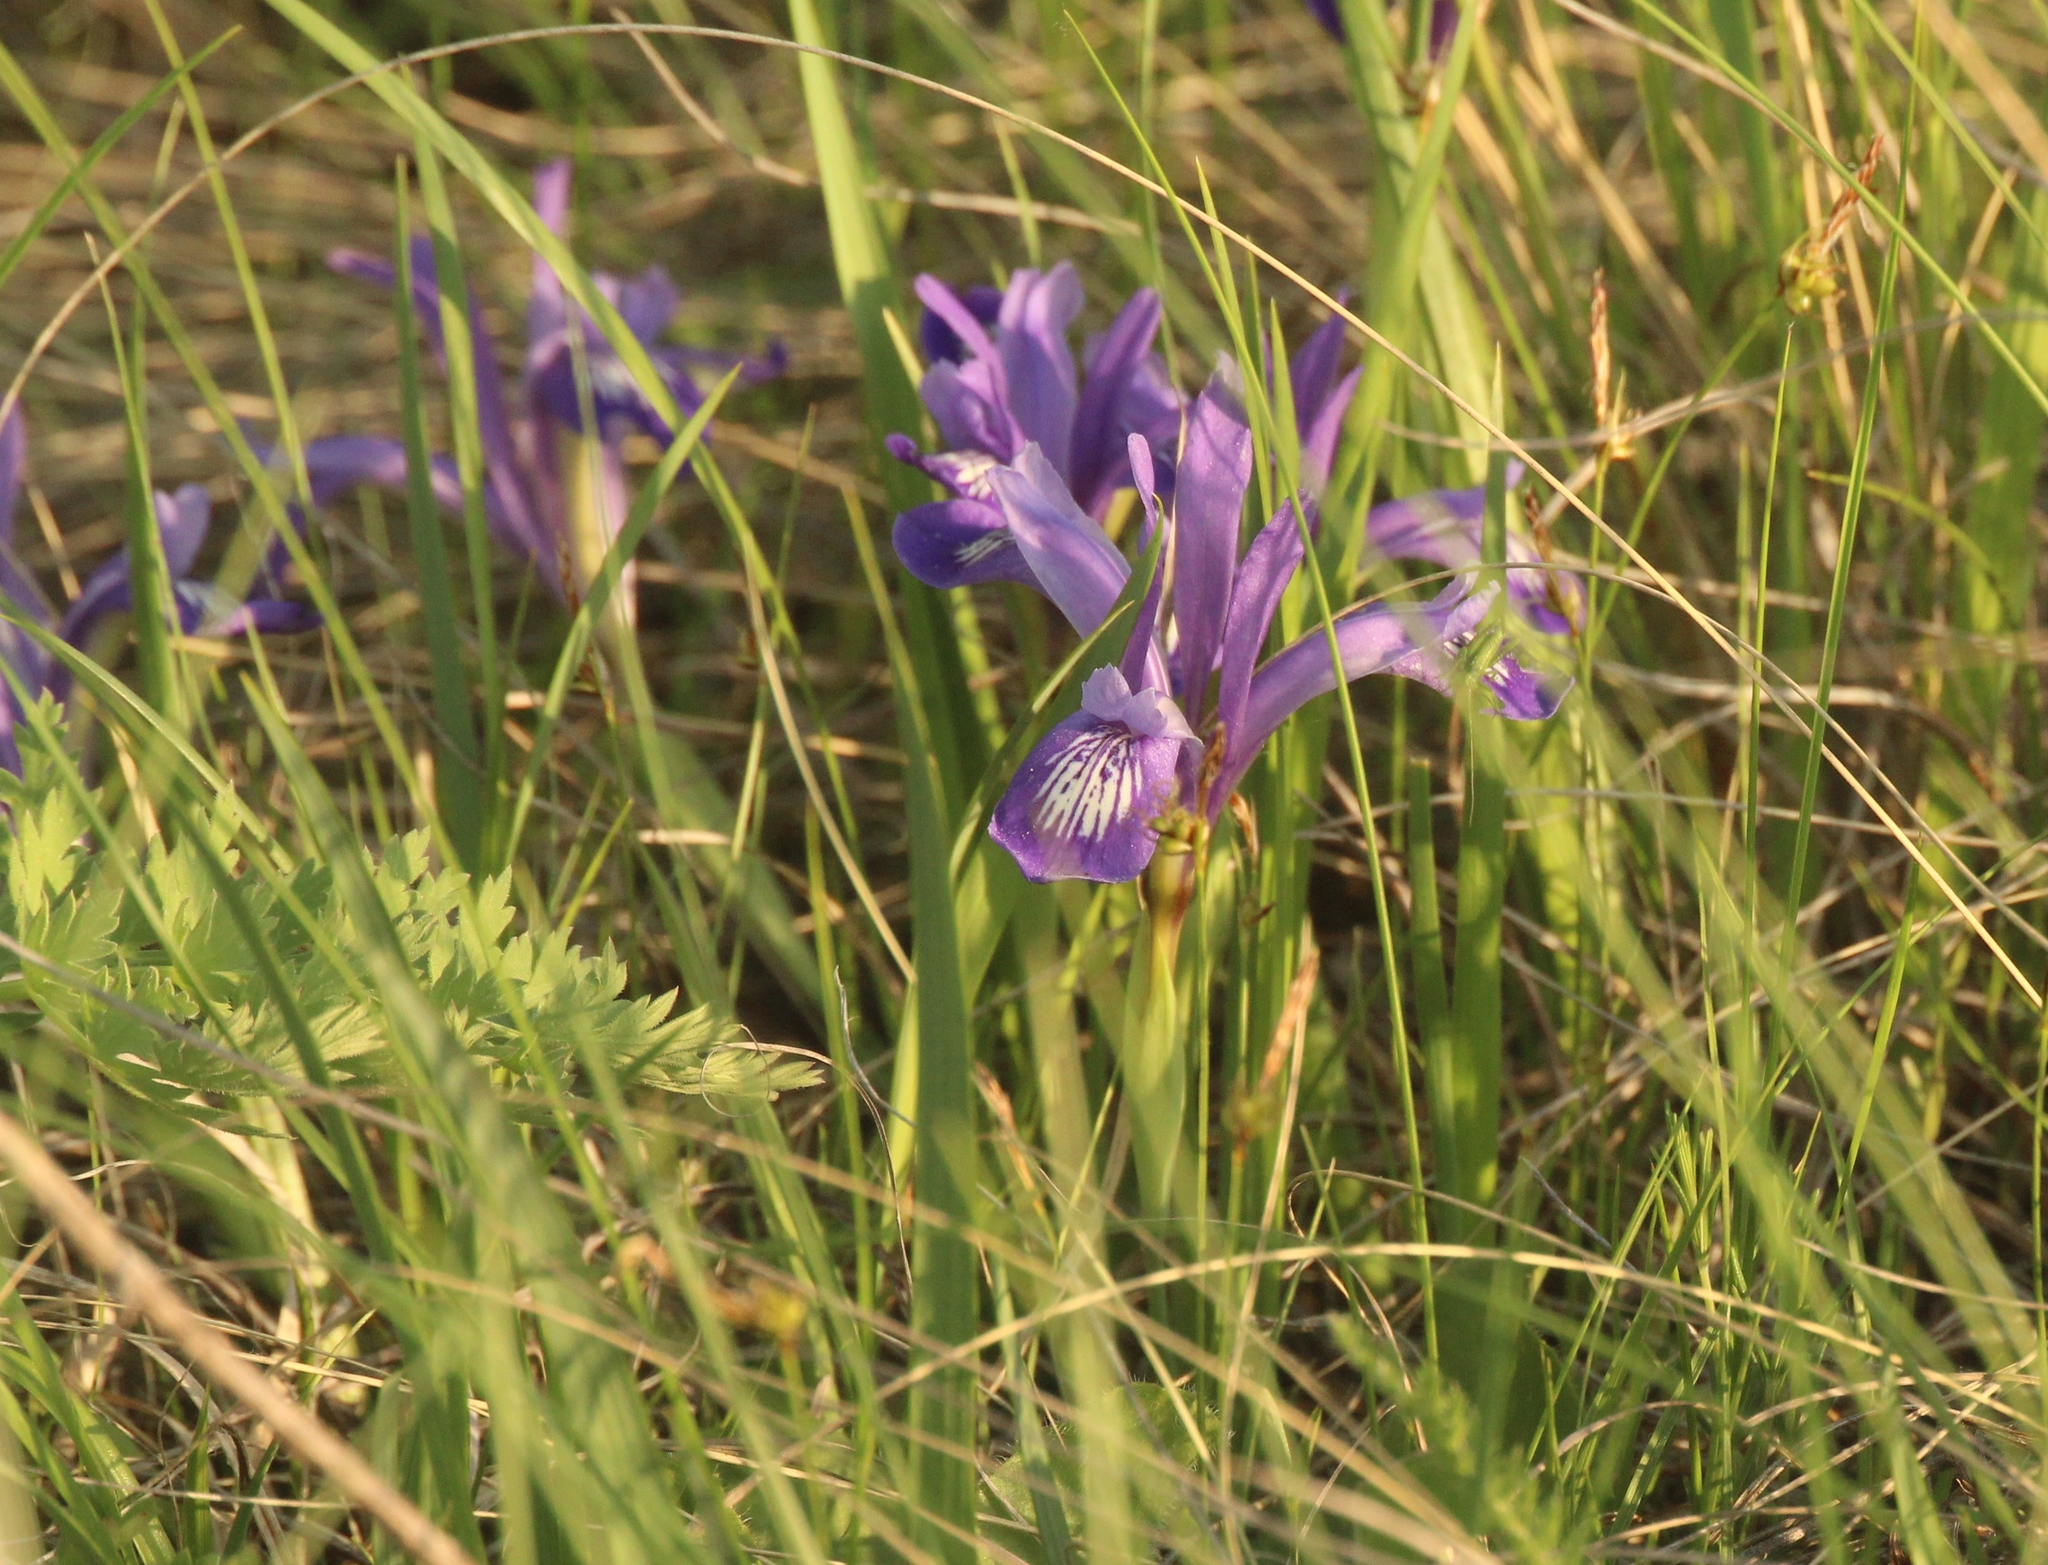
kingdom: Plantae
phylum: Tracheophyta
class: Liliopsida
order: Asparagales
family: Iridaceae
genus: Iris
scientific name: Iris ruthenica
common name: Purple-bract iris
